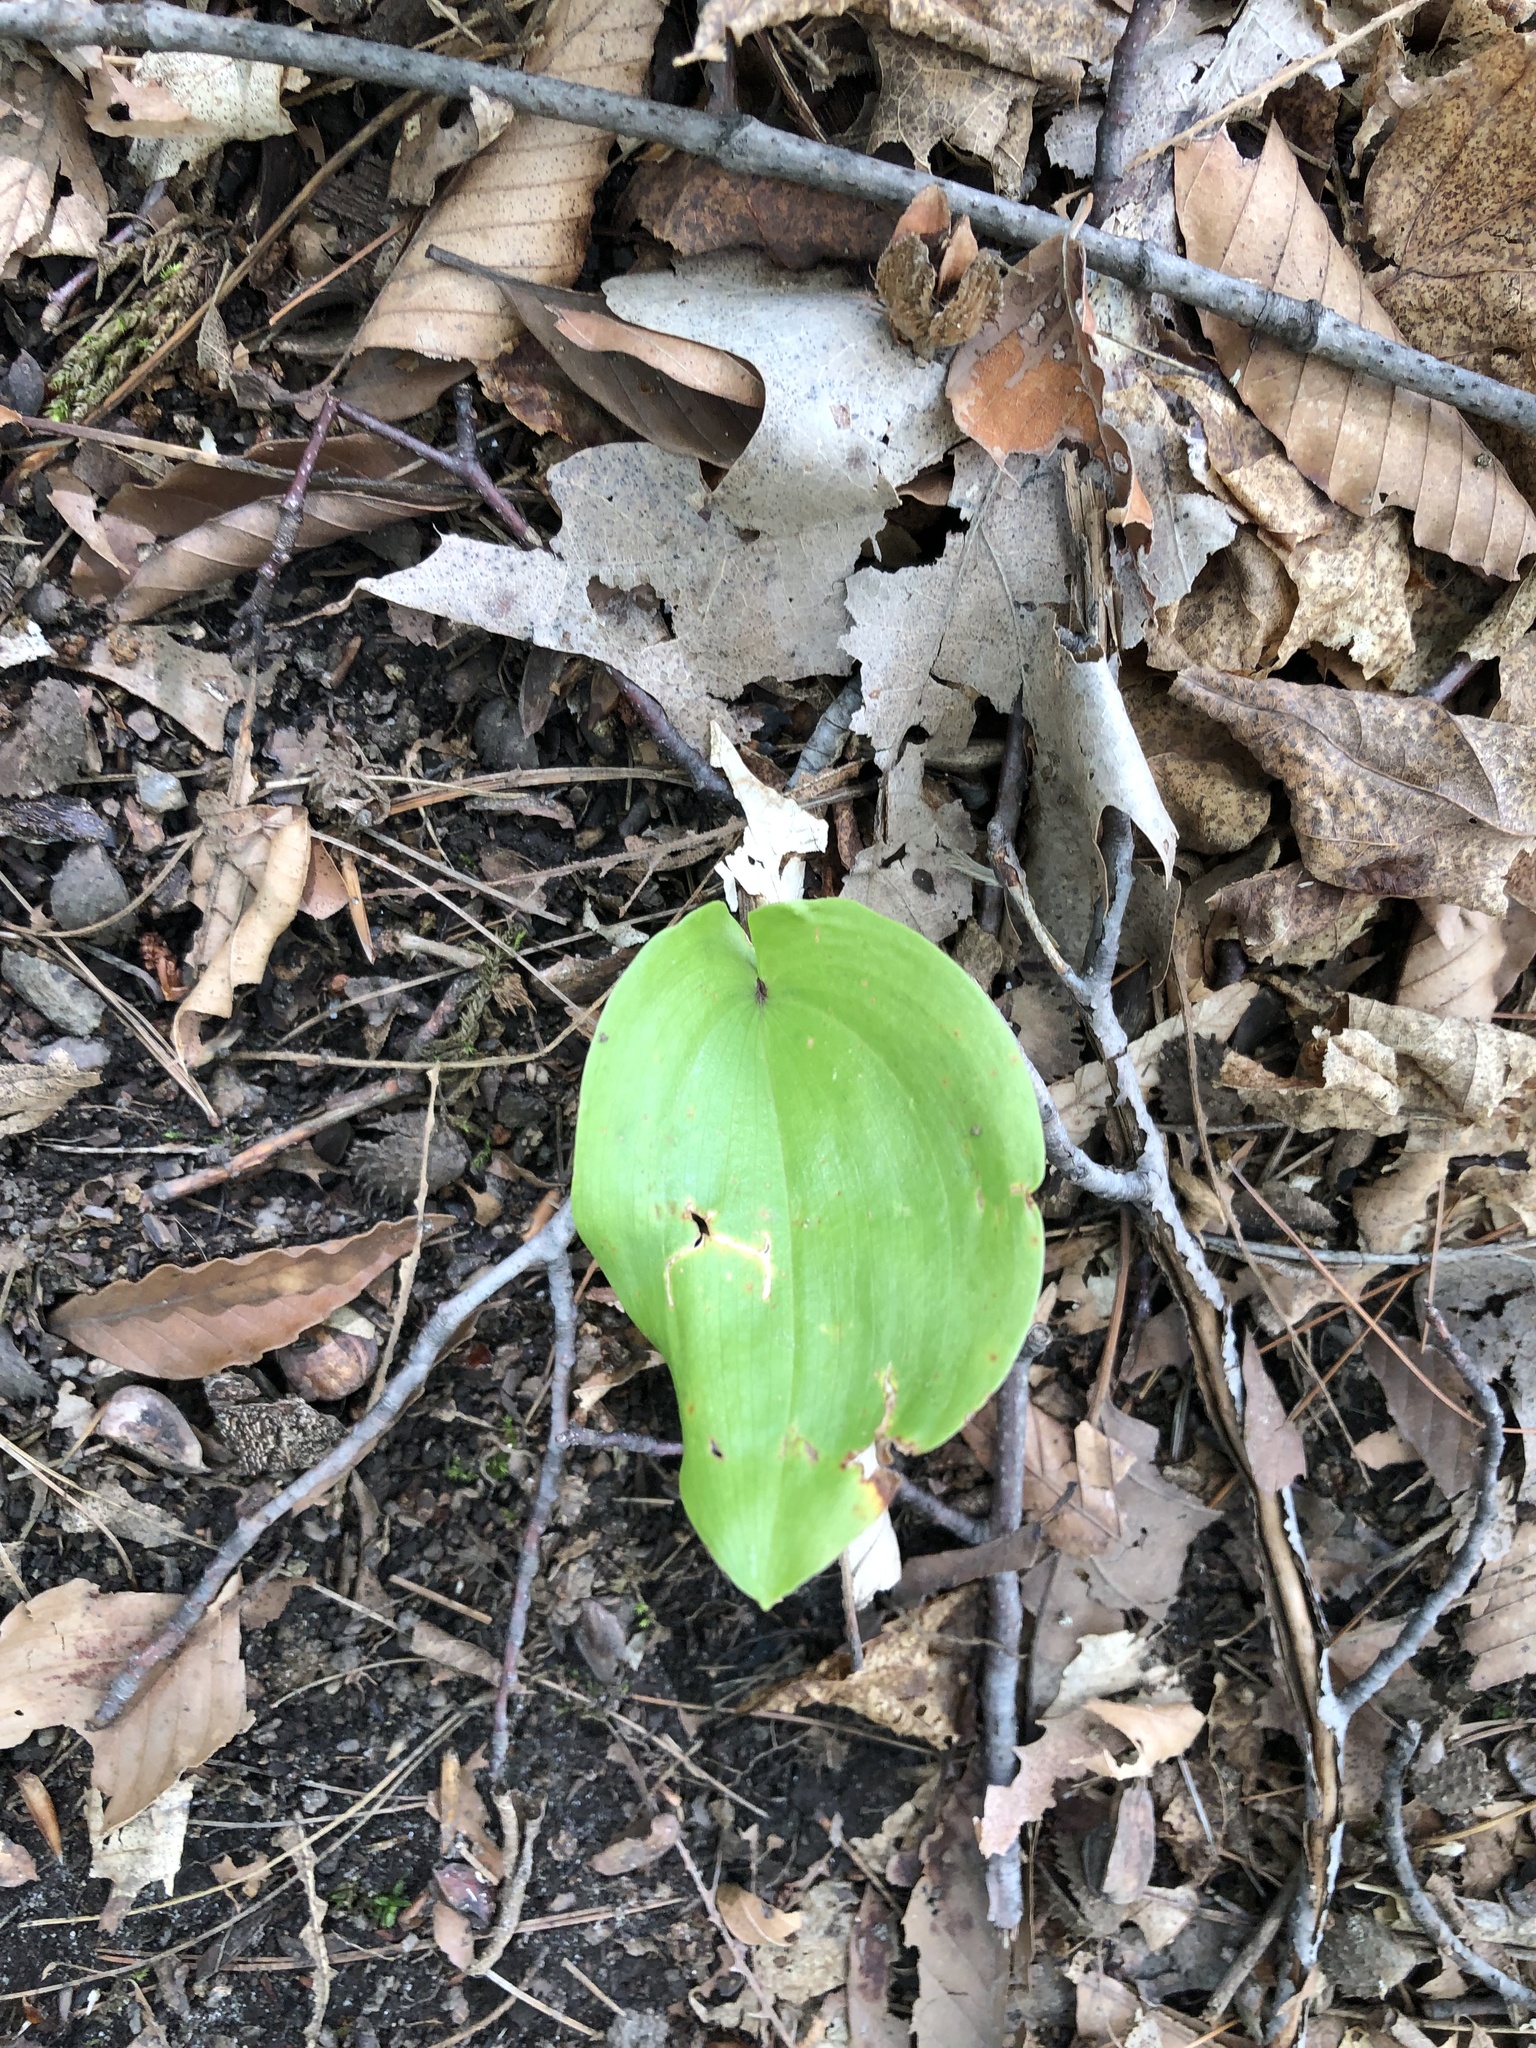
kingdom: Plantae
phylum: Tracheophyta
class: Liliopsida
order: Asparagales
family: Asparagaceae
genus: Maianthemum
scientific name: Maianthemum canadense
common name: False lily-of-the-valley
